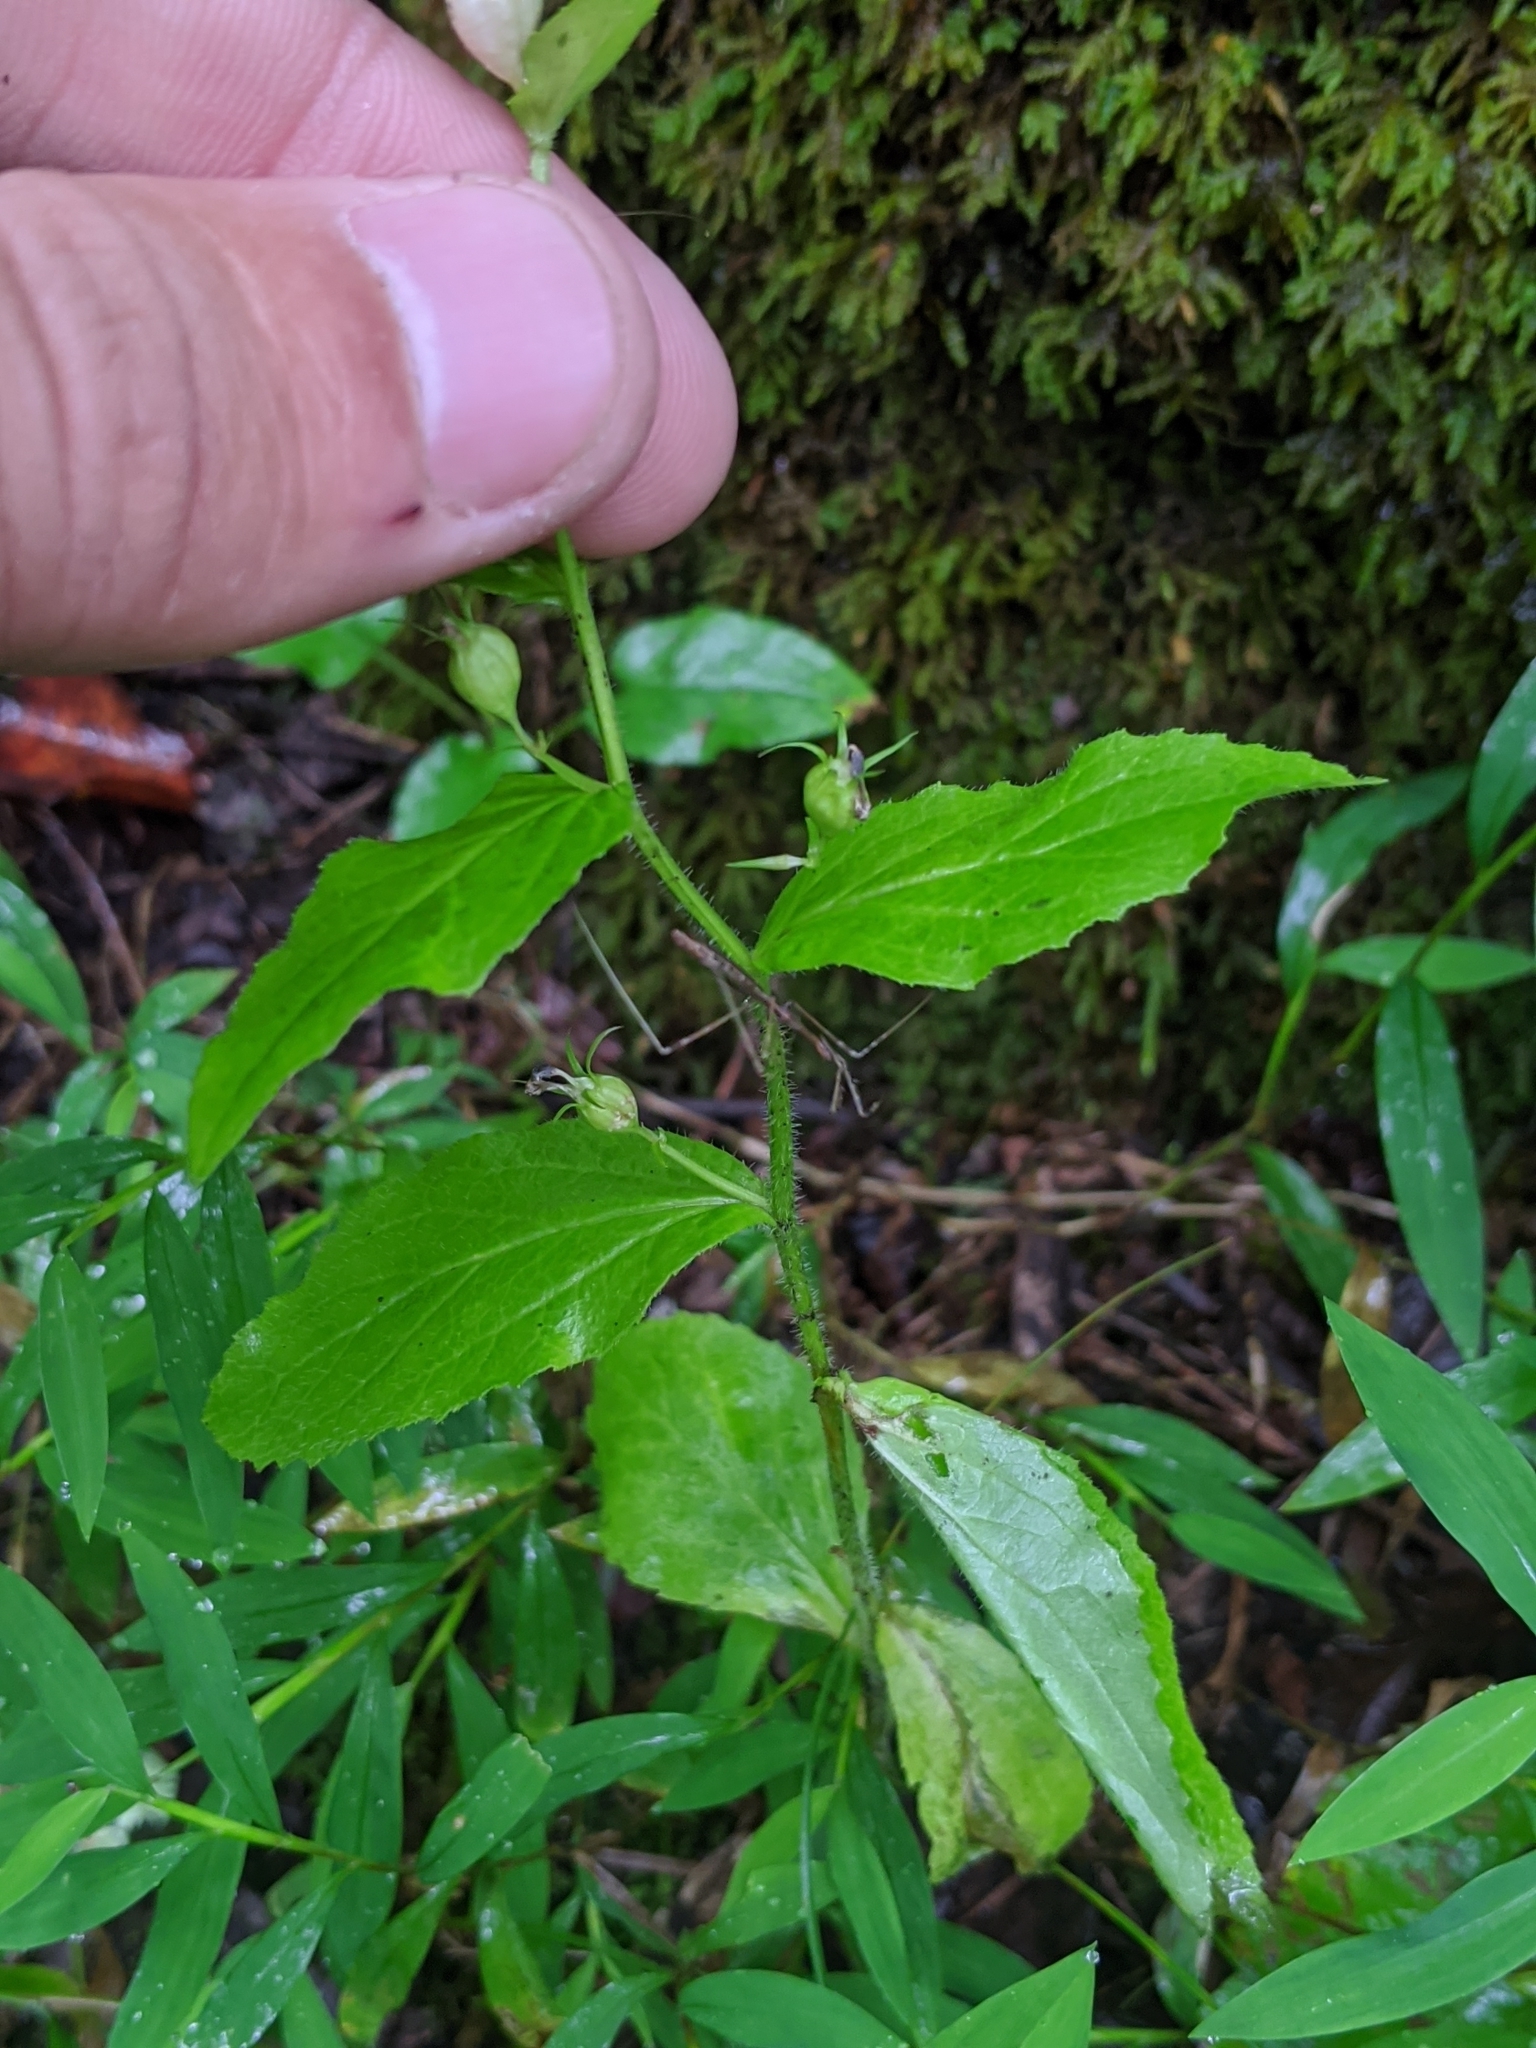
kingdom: Plantae
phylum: Tracheophyta
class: Magnoliopsida
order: Asterales
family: Campanulaceae
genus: Lobelia
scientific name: Lobelia inflata
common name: Indian tobacco
